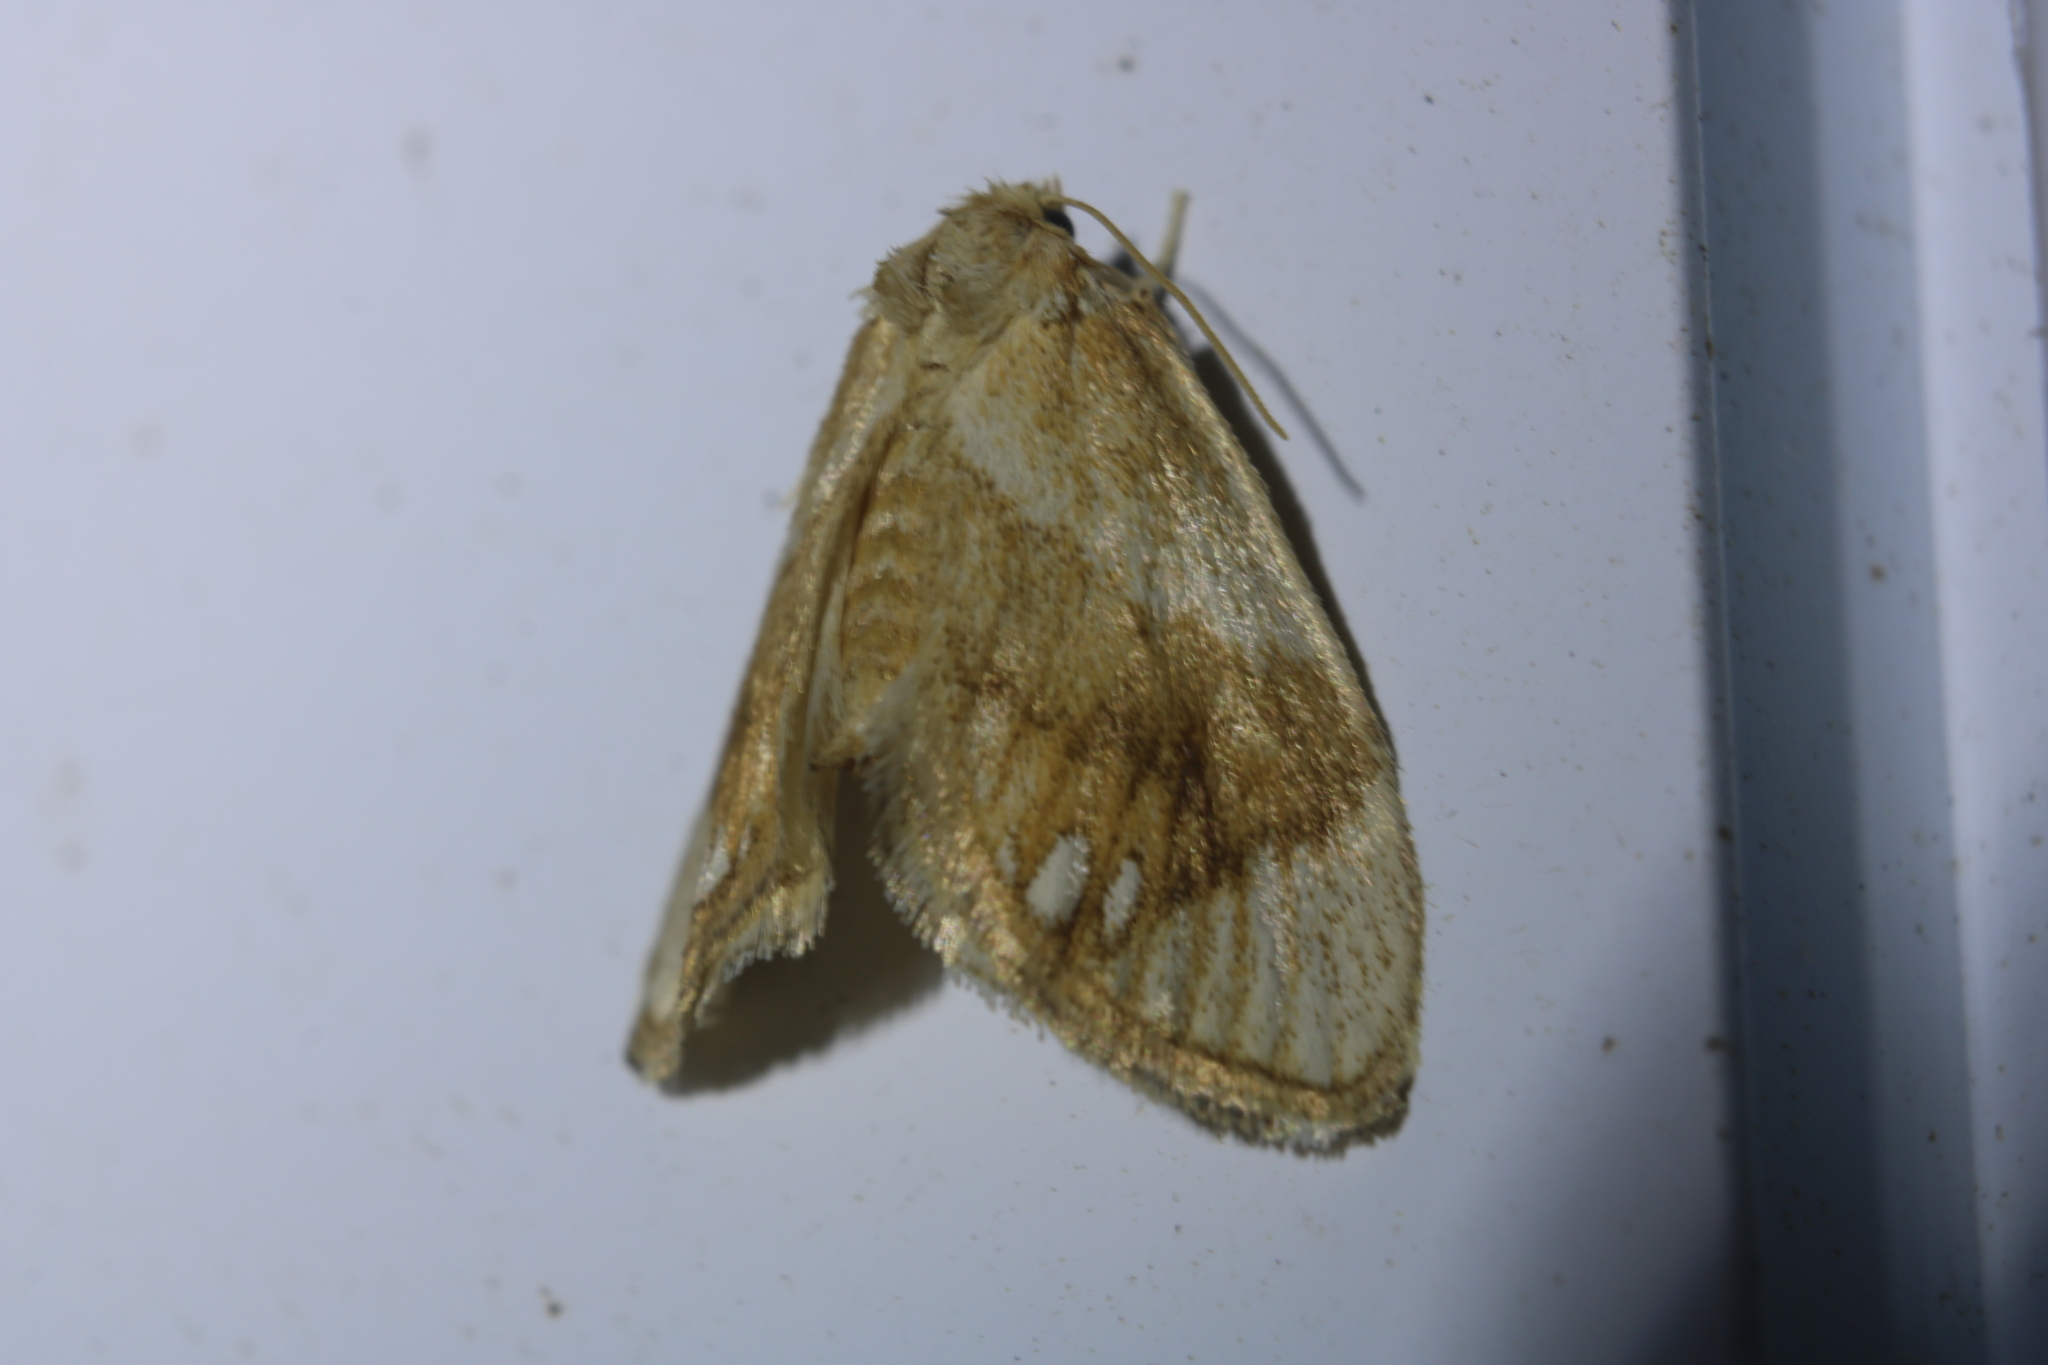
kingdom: Animalia
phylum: Arthropoda
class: Insecta
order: Lepidoptera
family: Limacodidae
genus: Packardia
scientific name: Packardia geminata
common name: Jeweled tailed slug moth
